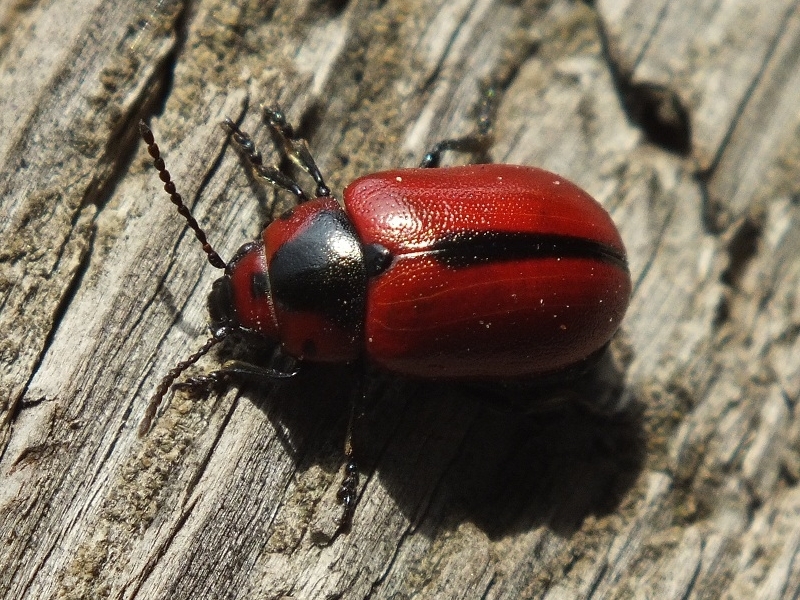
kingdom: Animalia
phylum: Arthropoda
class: Insecta
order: Coleoptera
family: Chrysomelidae
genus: Entomoscelis
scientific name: Entomoscelis adonidis
